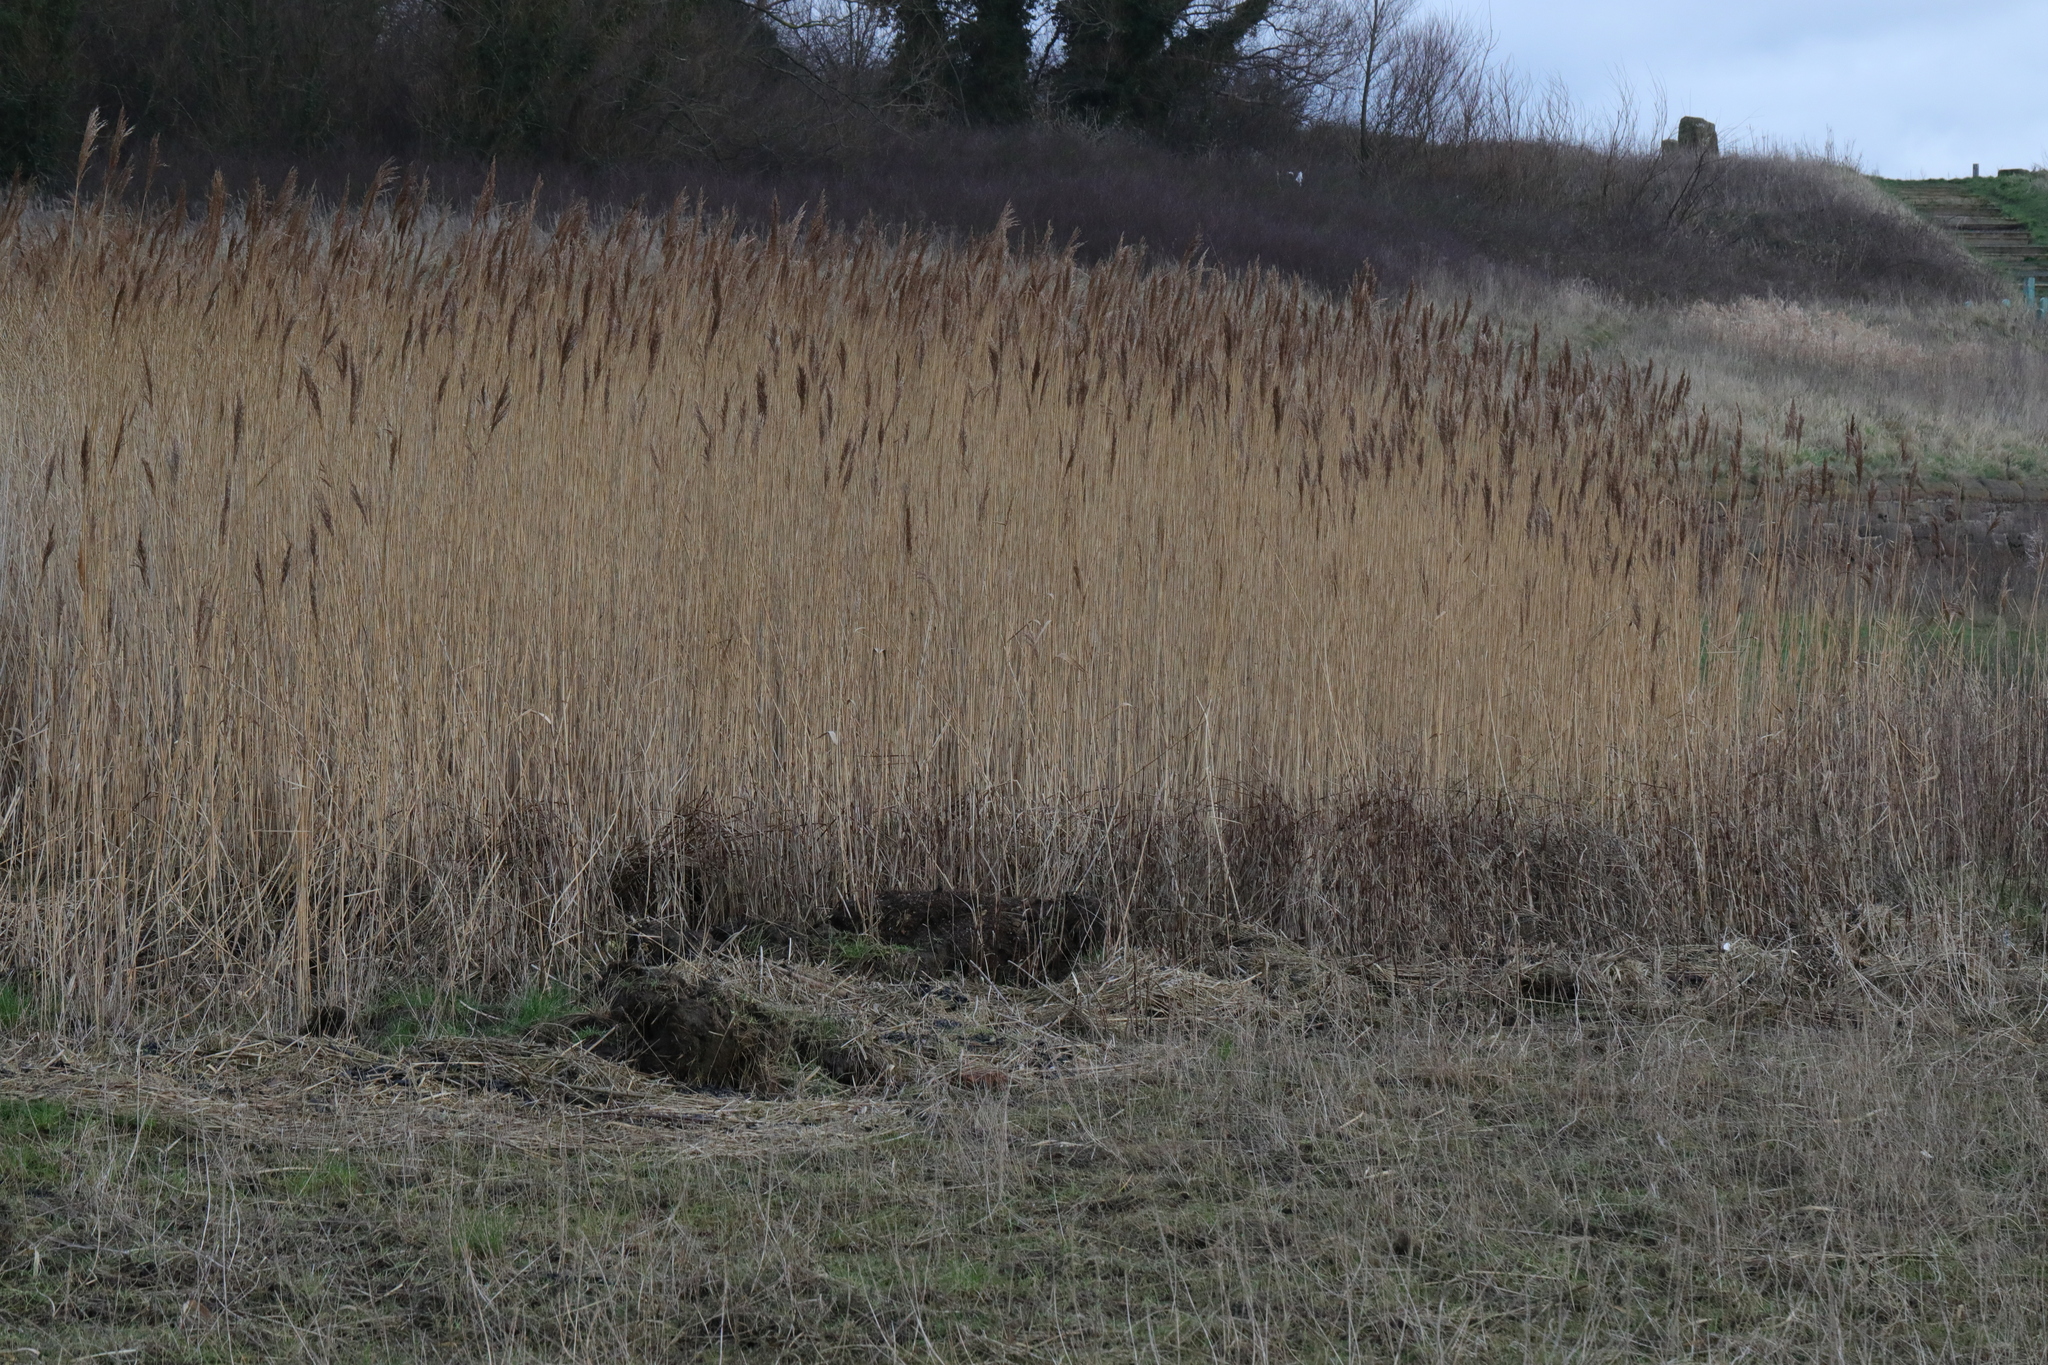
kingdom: Plantae
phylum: Tracheophyta
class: Liliopsida
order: Poales
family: Poaceae
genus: Phragmites
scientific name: Phragmites australis
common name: Common reed
